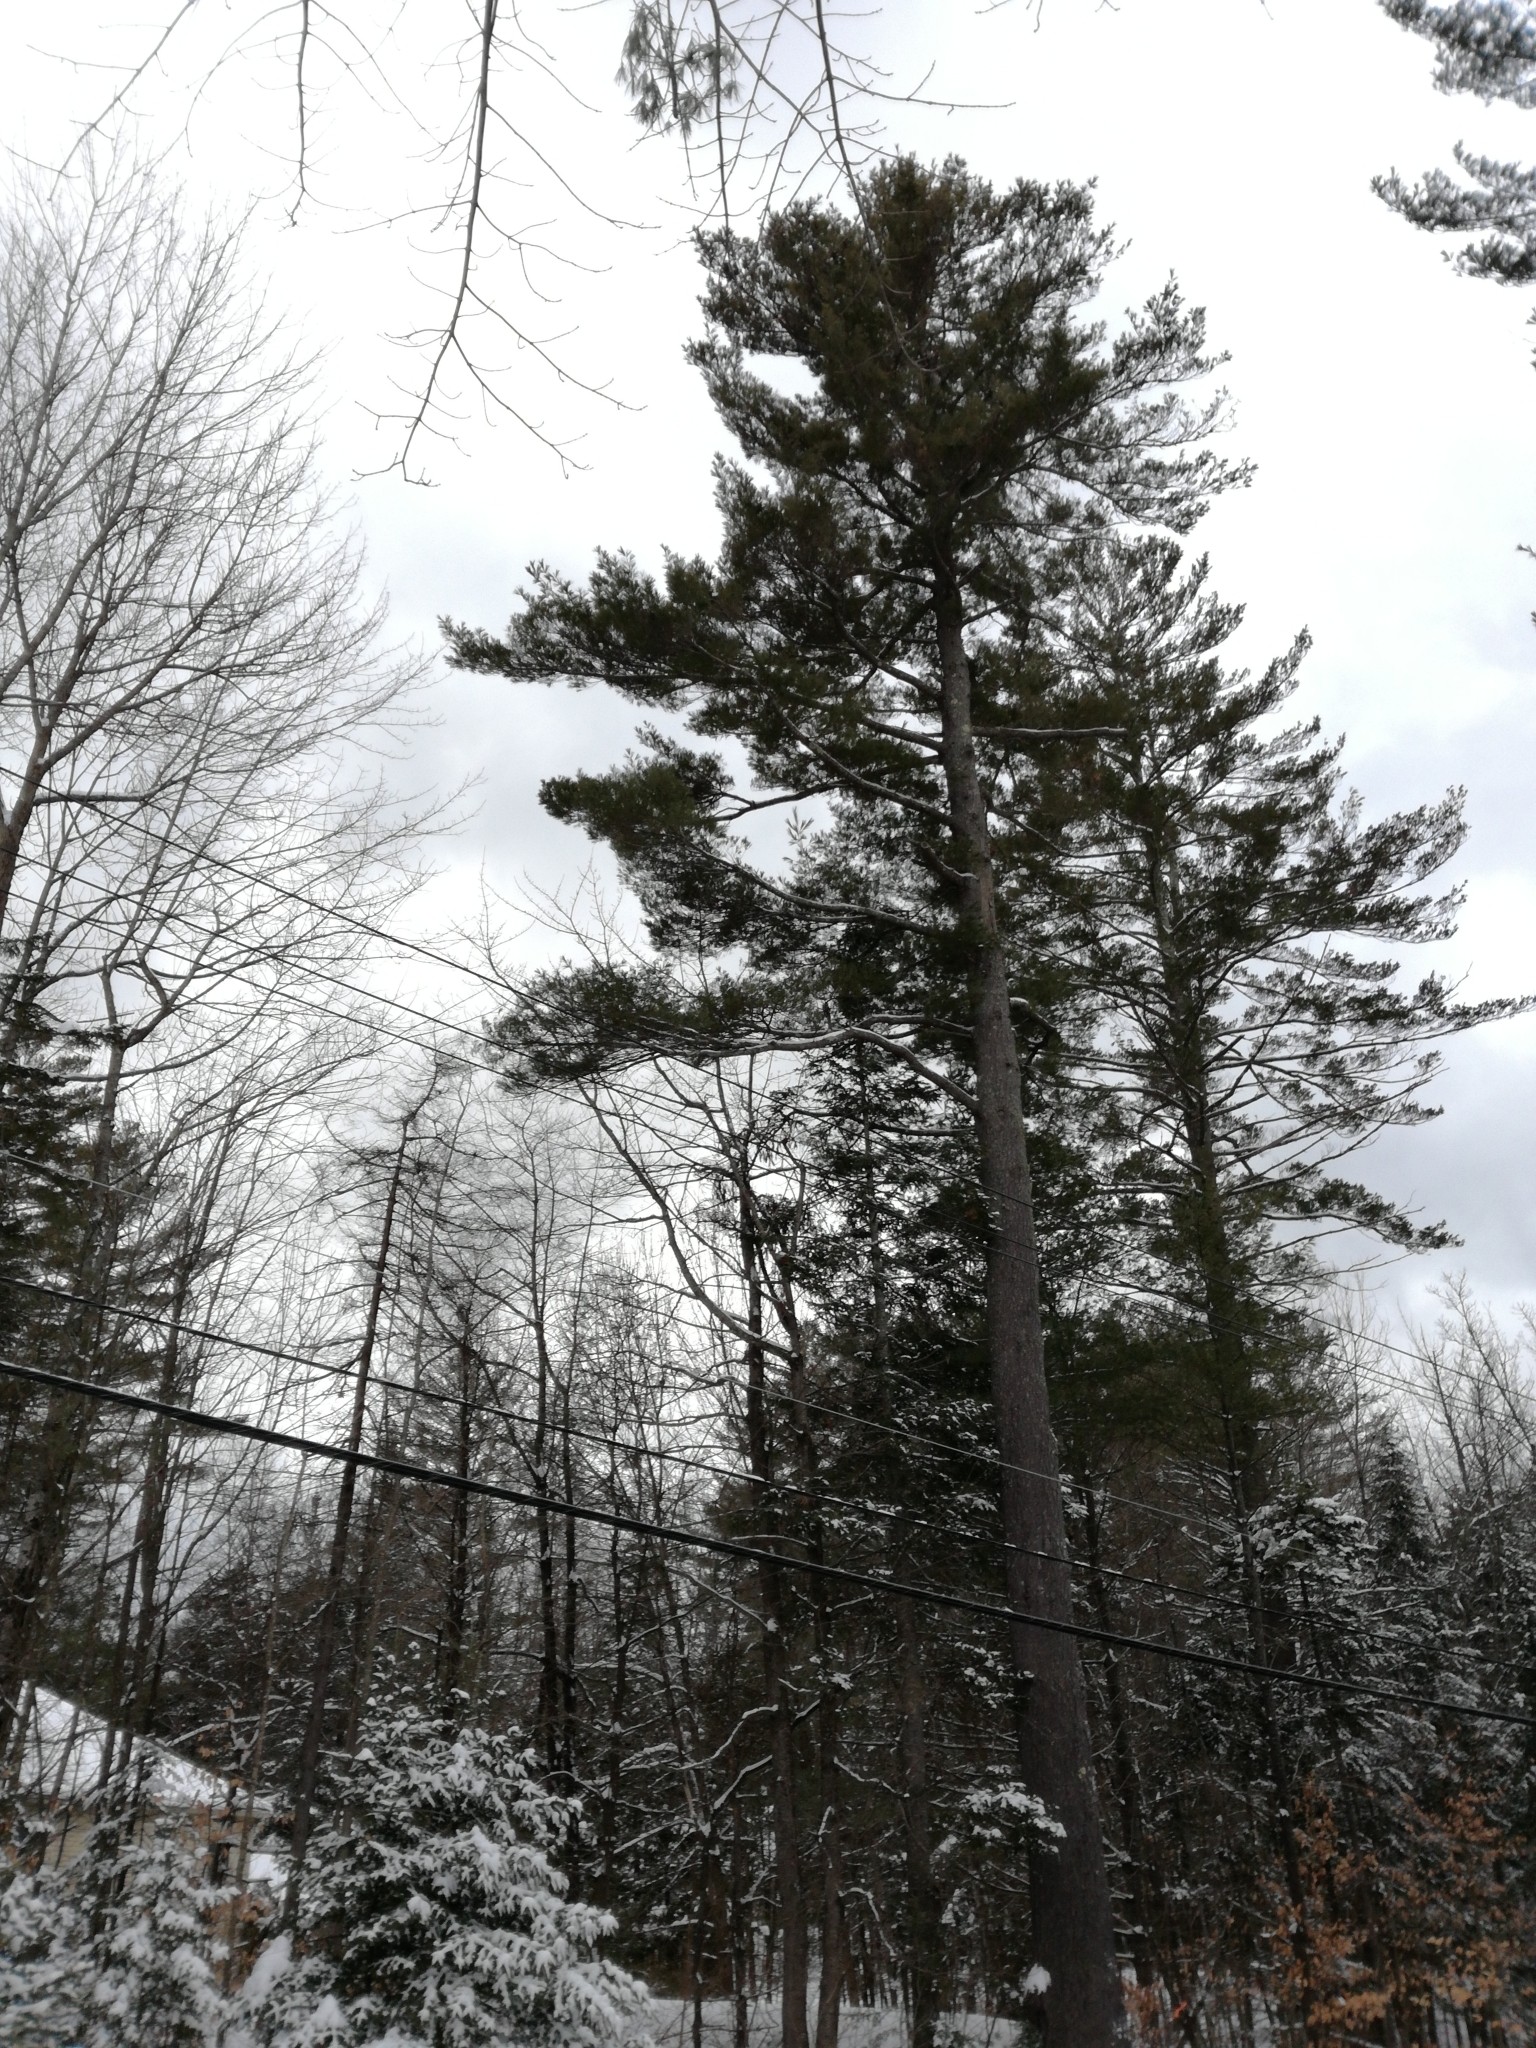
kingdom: Plantae
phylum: Tracheophyta
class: Pinopsida
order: Pinales
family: Pinaceae
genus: Pinus
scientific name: Pinus strobus
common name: Weymouth pine
